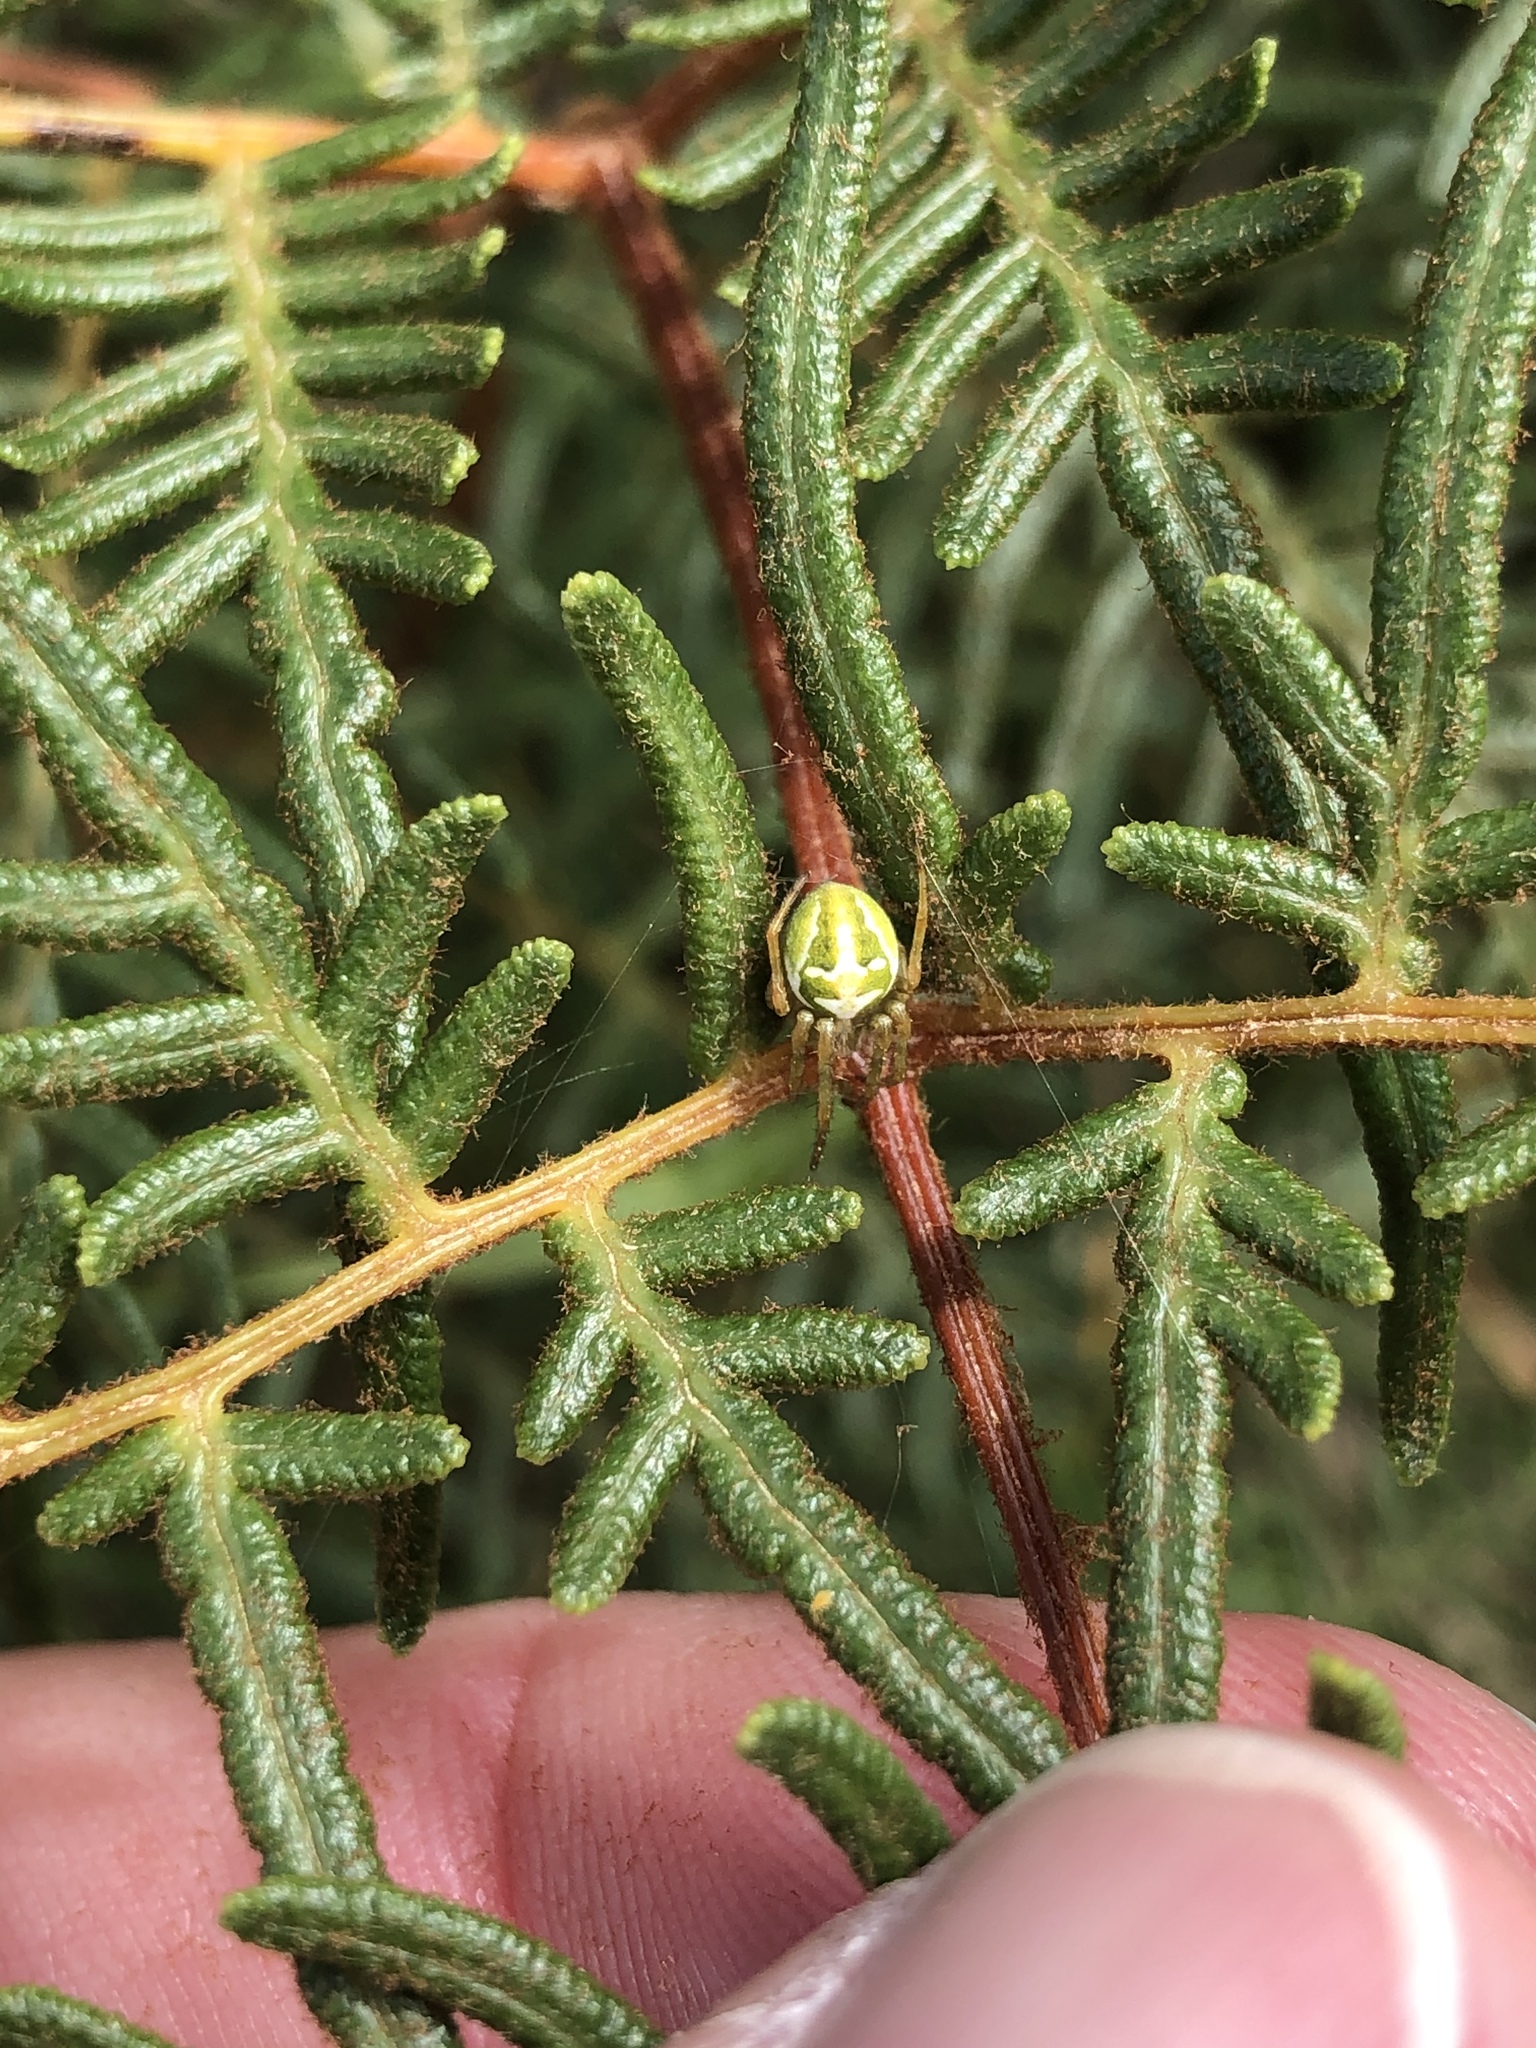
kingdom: Animalia
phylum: Arthropoda
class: Arachnida
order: Araneae
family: Araneidae
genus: Colaranea
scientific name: Colaranea verutum
